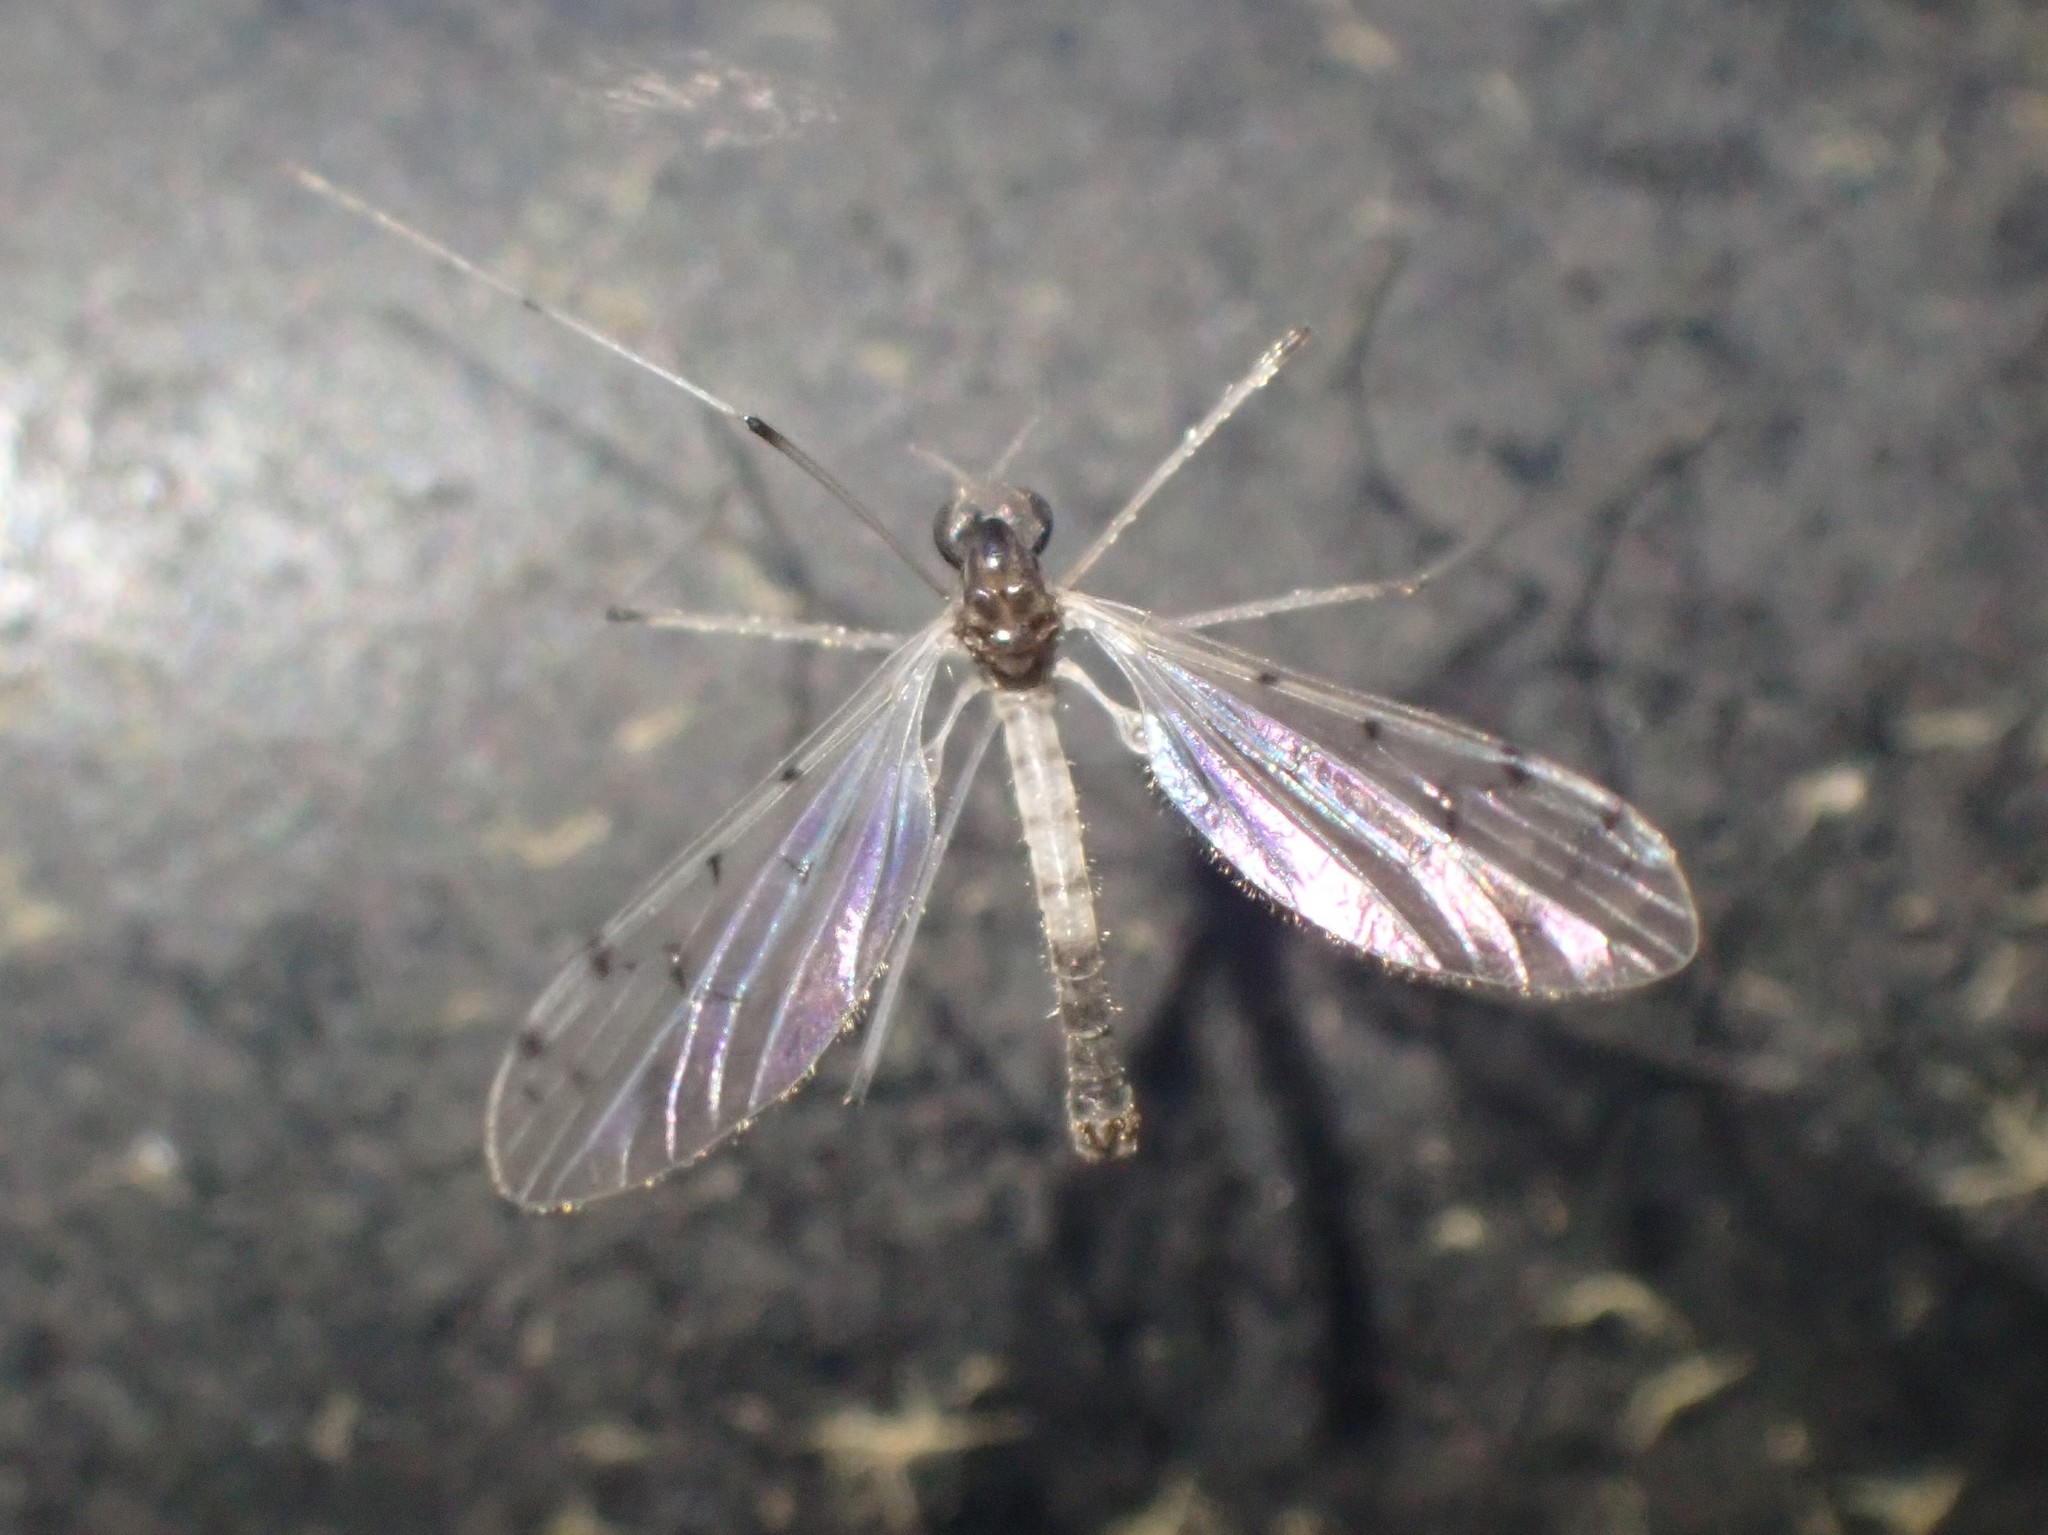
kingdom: Animalia
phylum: Arthropoda
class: Insecta
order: Diptera
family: Pediciidae
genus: Dicranota
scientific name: Dicranota maculata
